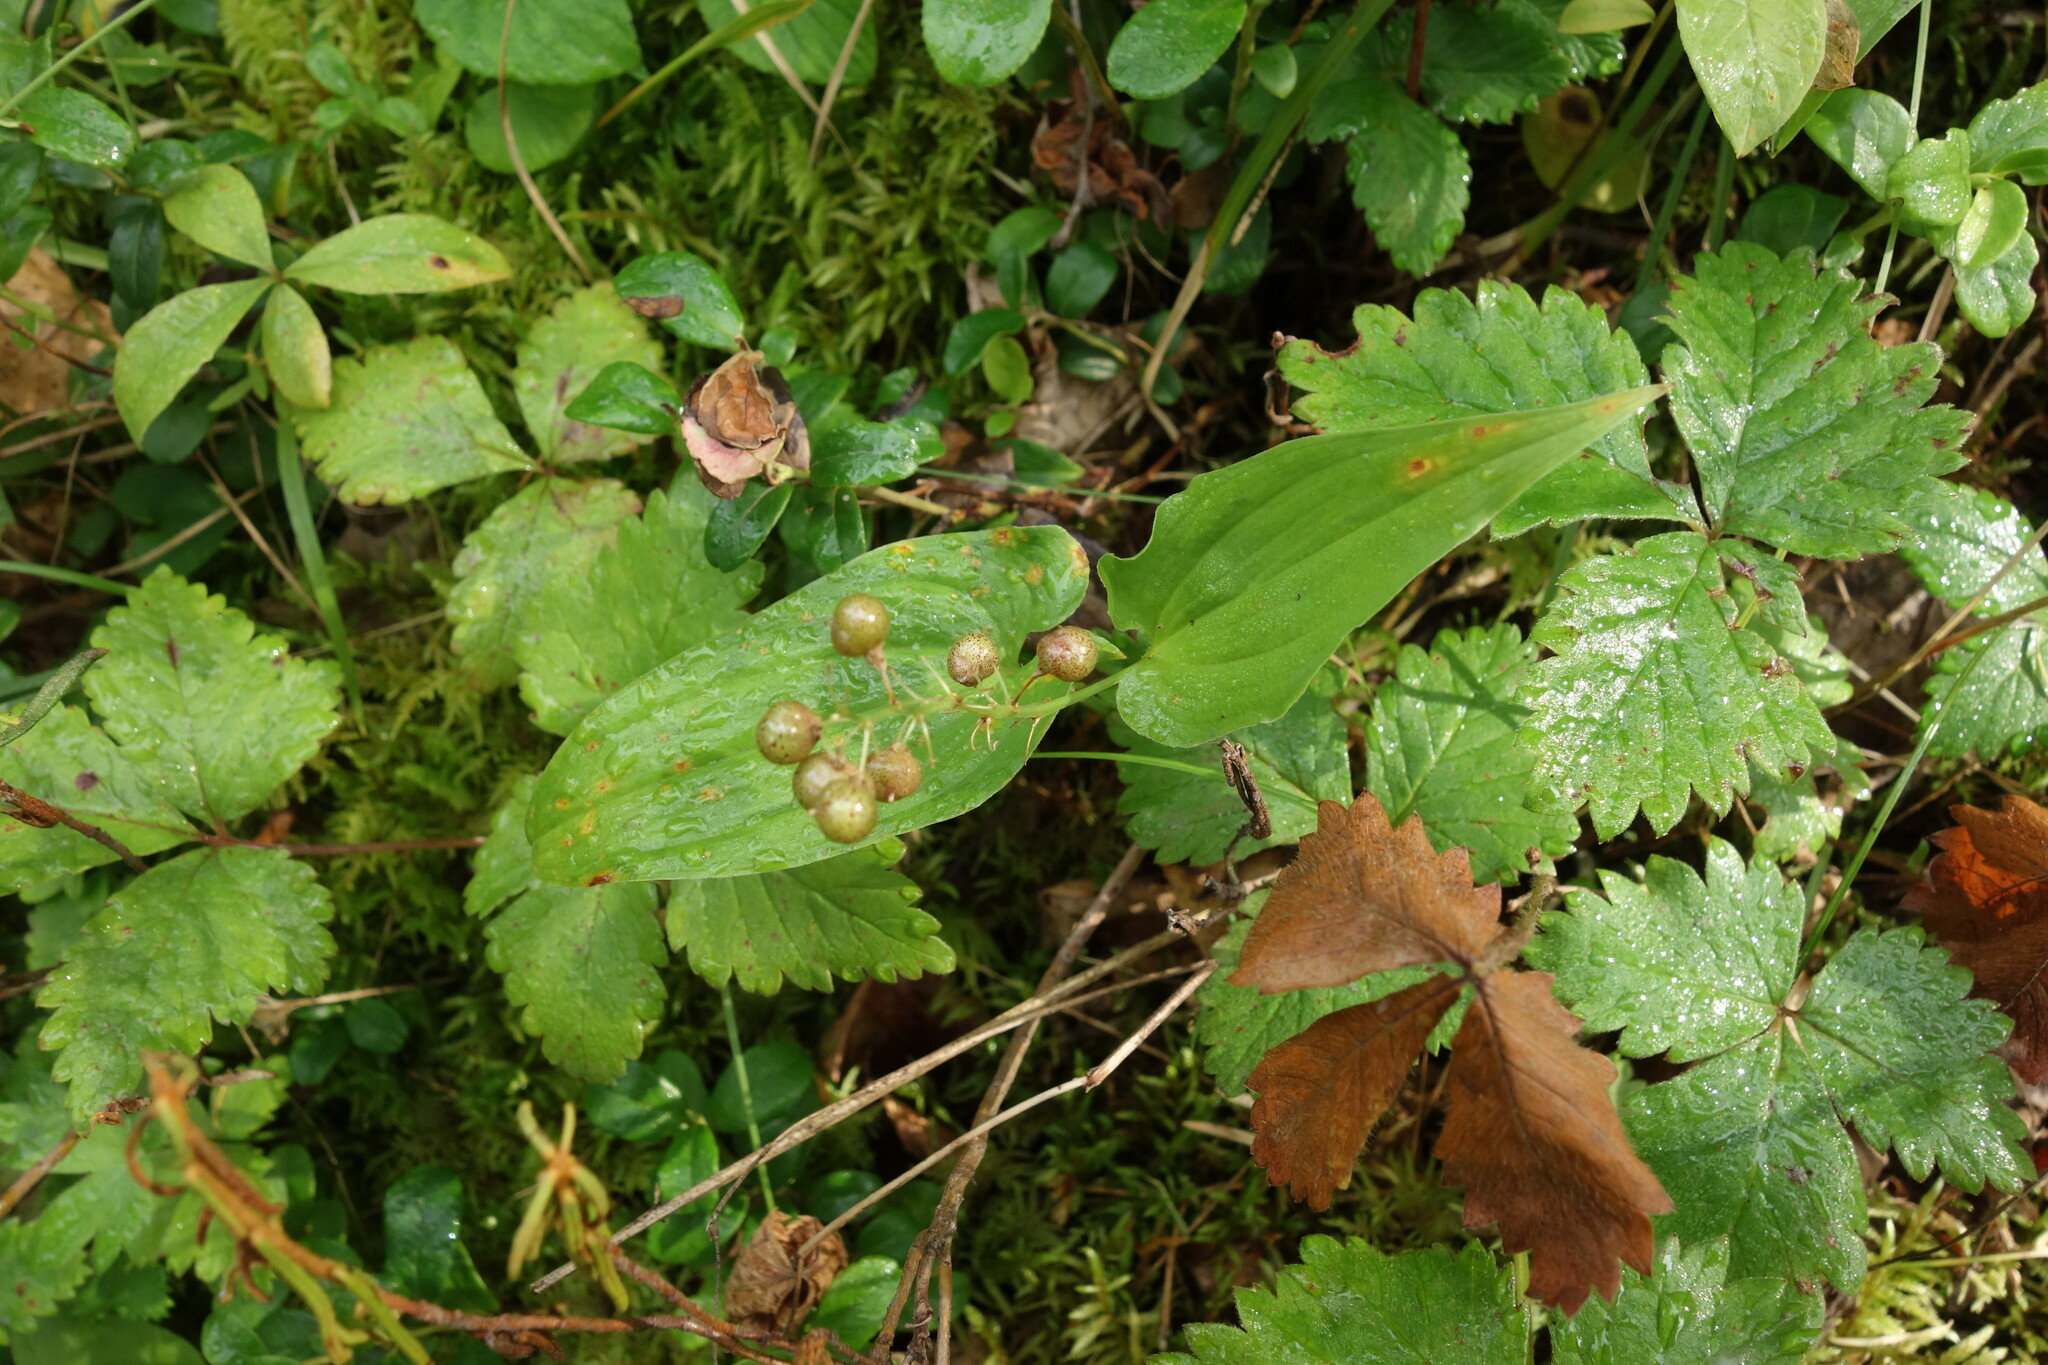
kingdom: Plantae
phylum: Tracheophyta
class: Liliopsida
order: Asparagales
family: Asparagaceae
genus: Maianthemum
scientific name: Maianthemum bifolium
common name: May lily
